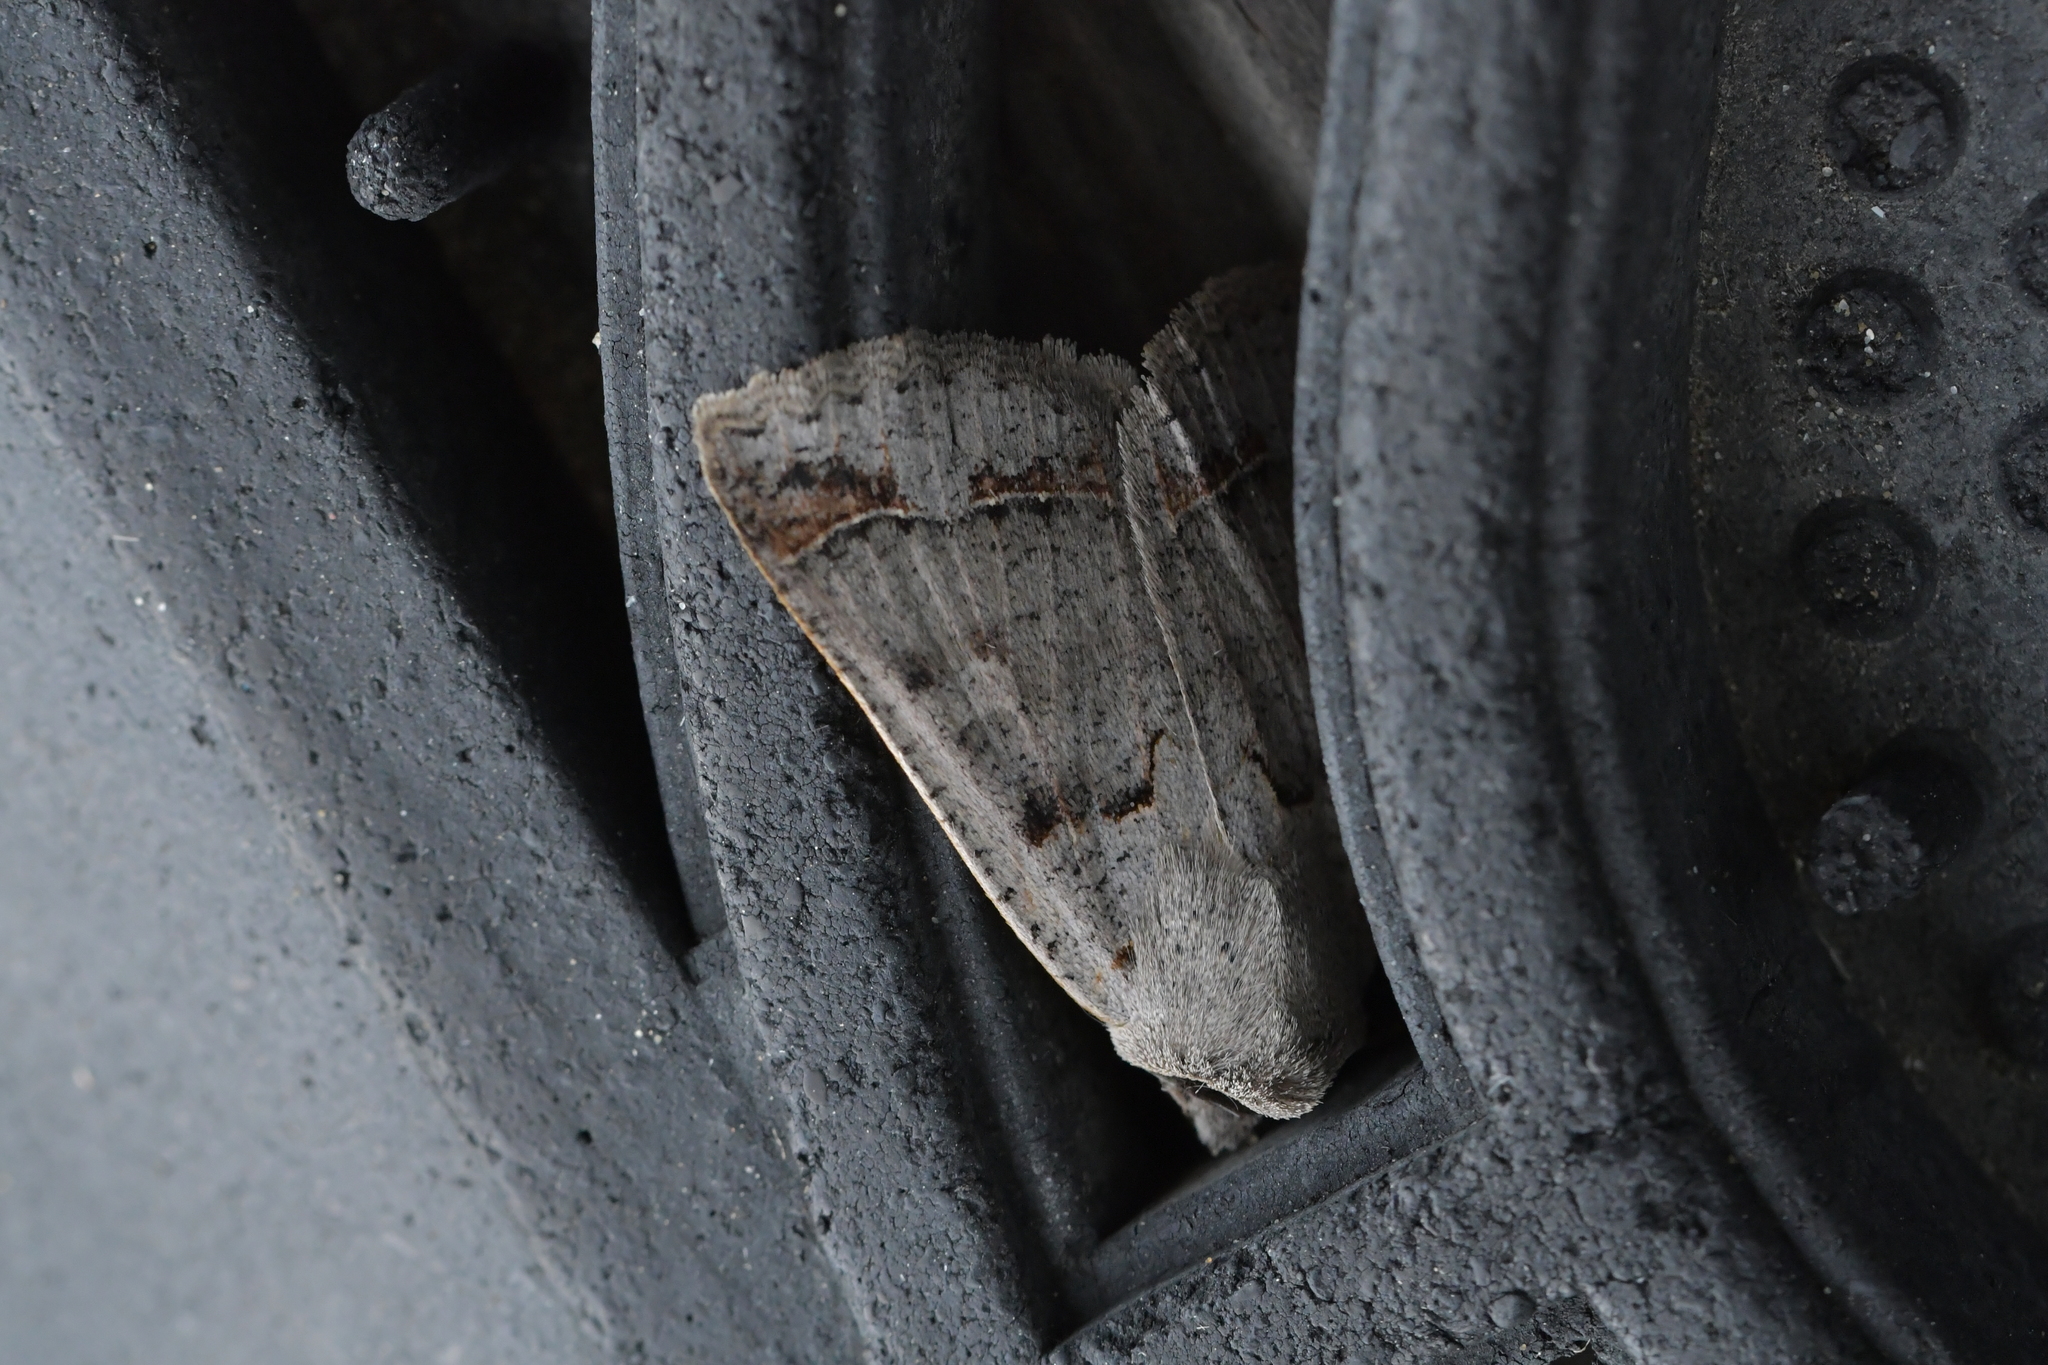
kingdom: Animalia
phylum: Arthropoda
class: Insecta
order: Lepidoptera
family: Erebidae
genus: Pantydia
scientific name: Pantydia sparsa
